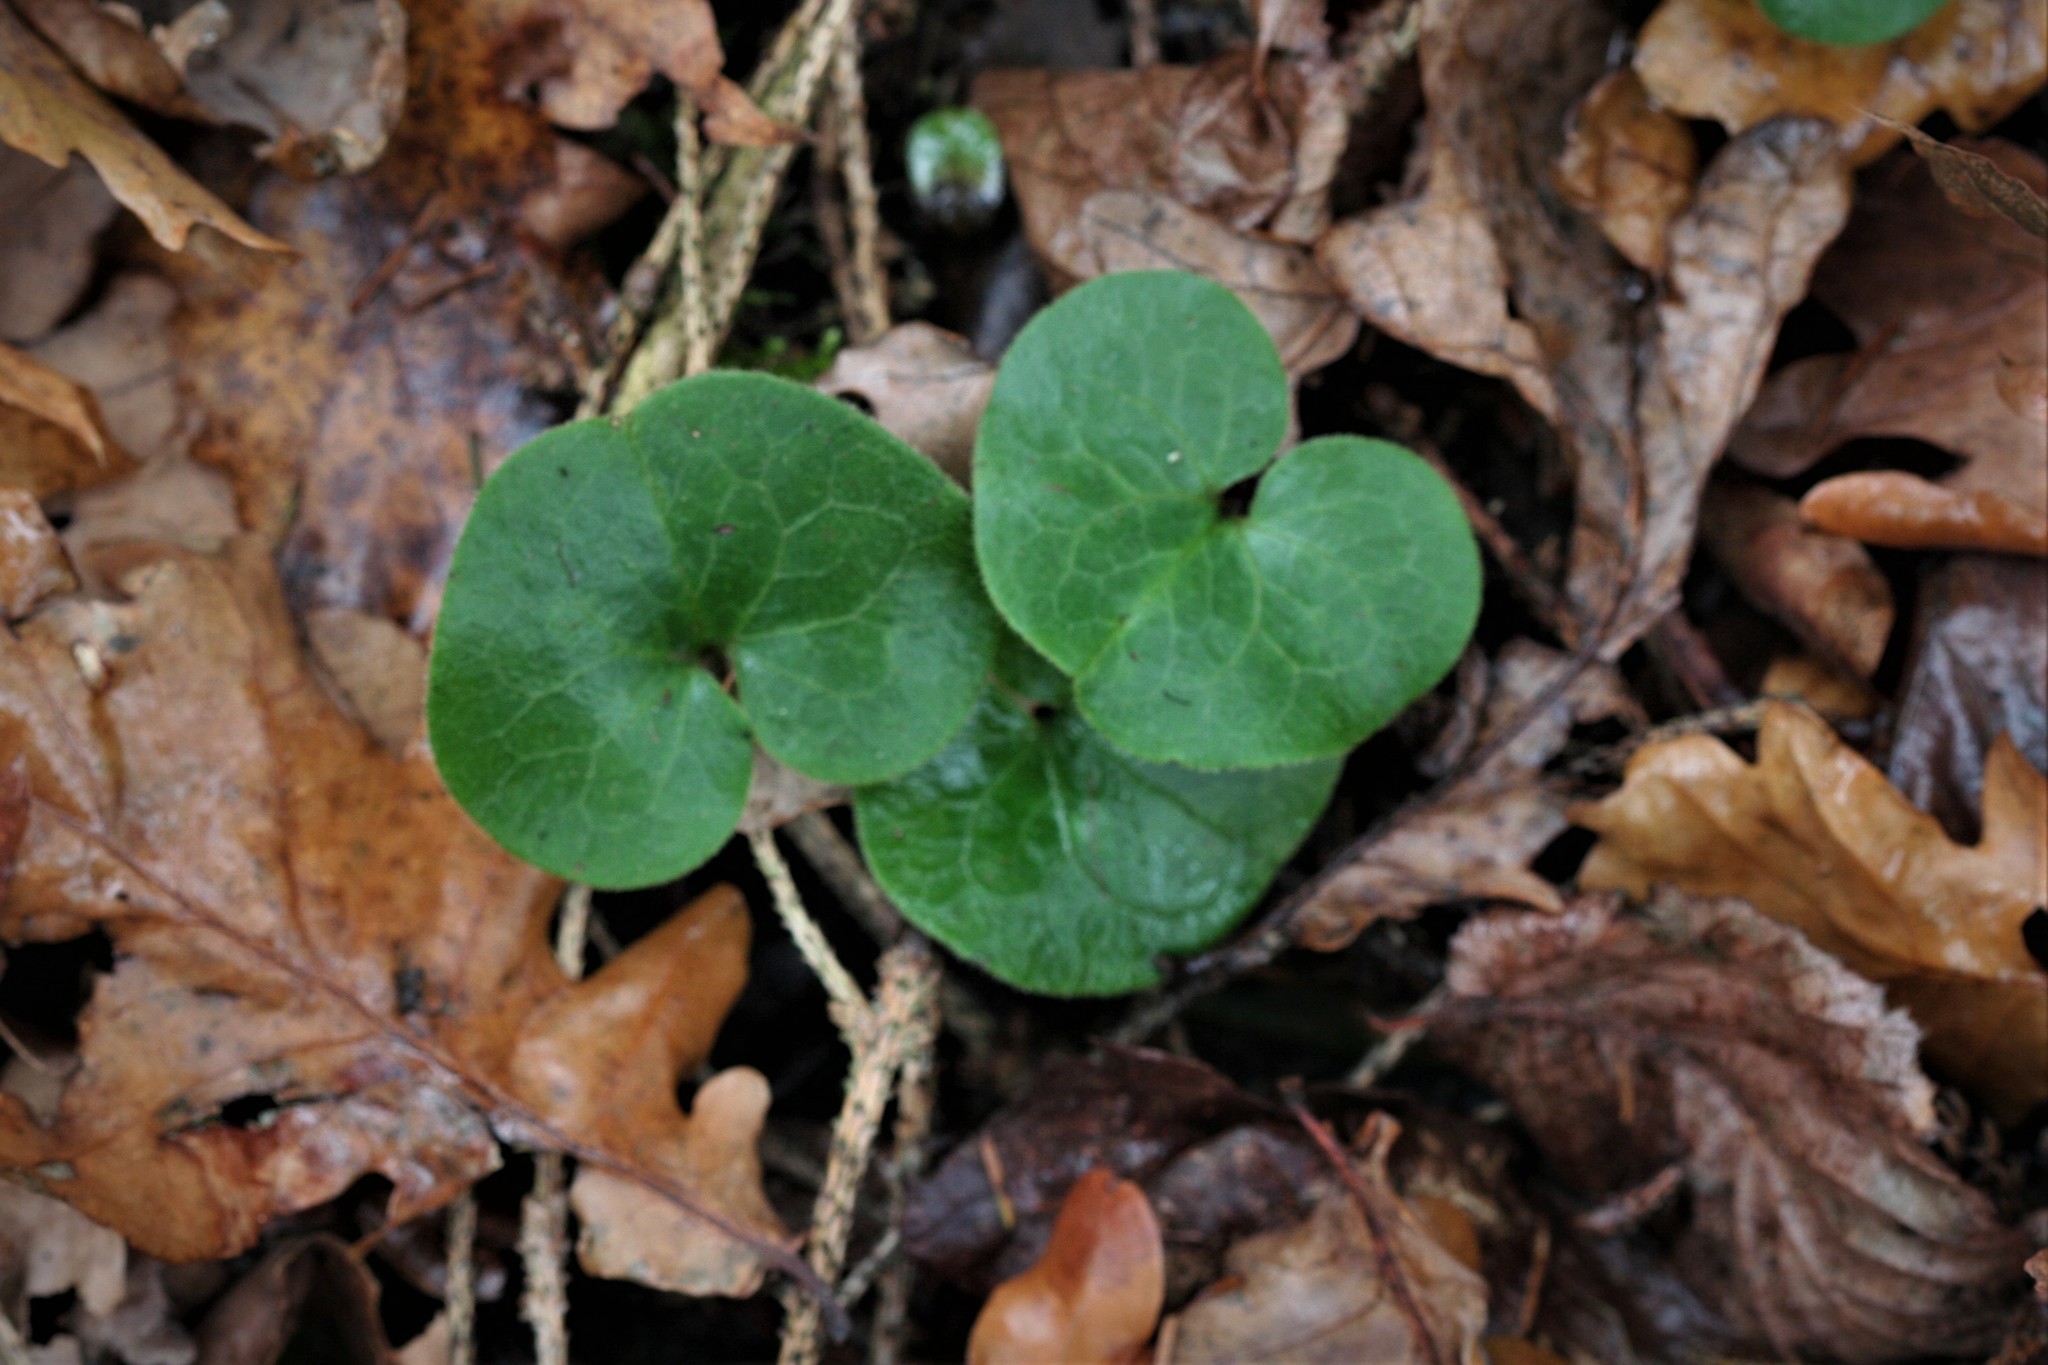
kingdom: Plantae
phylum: Tracheophyta
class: Magnoliopsida
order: Piperales
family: Aristolochiaceae
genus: Asarum
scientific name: Asarum europaeum
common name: Asarabacca
